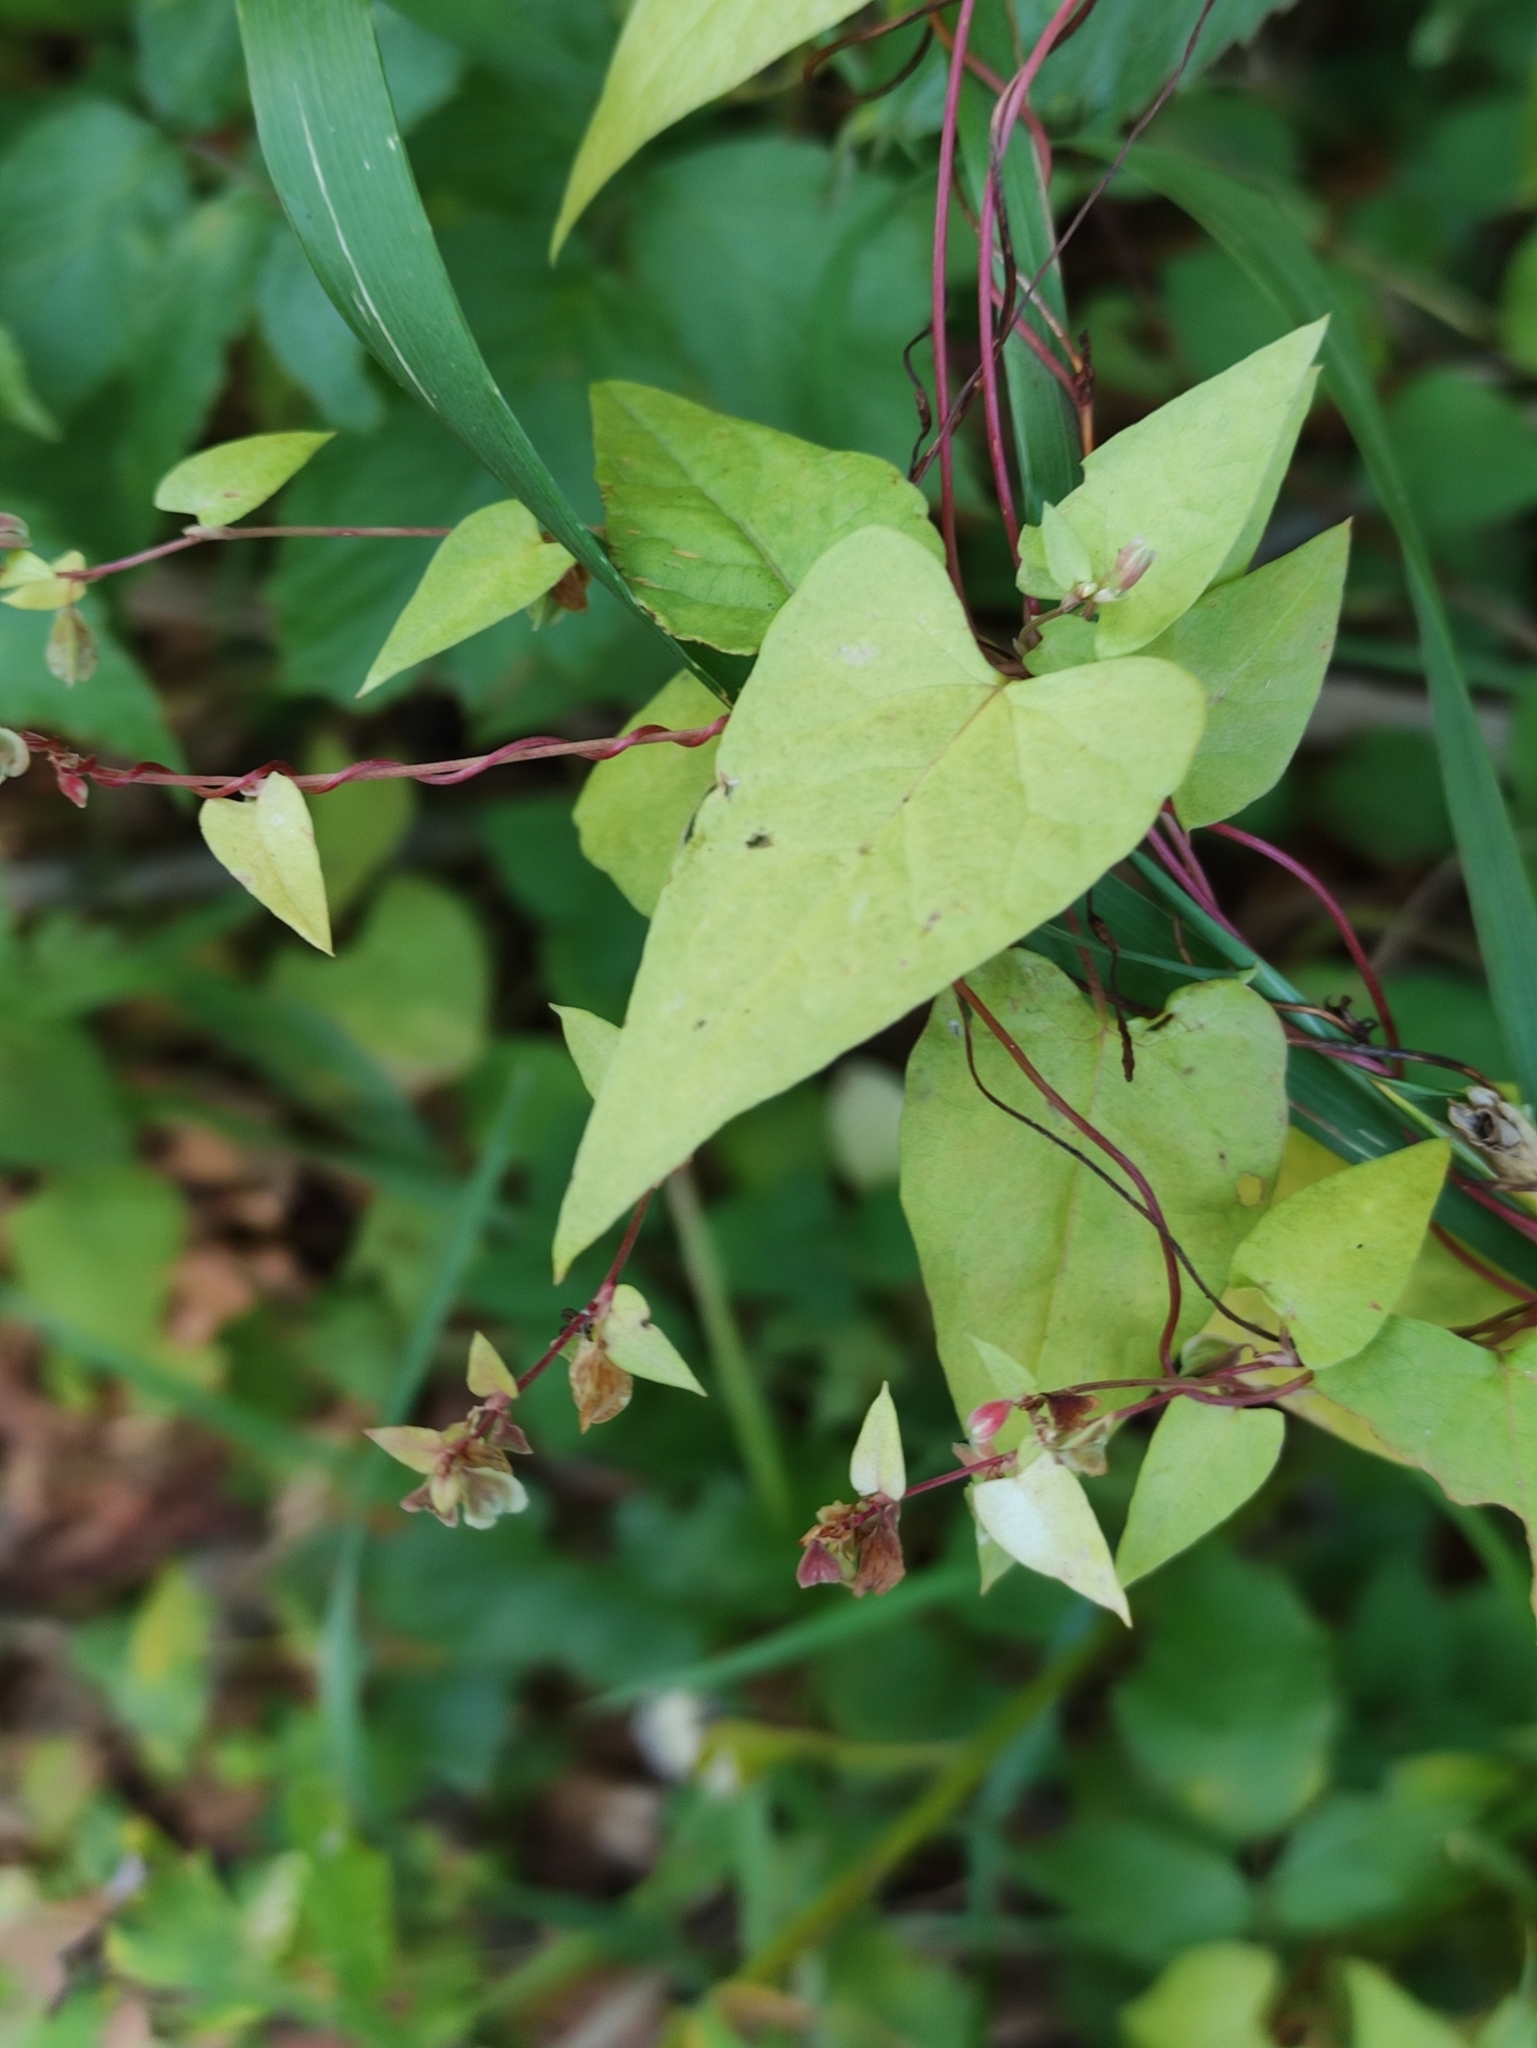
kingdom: Plantae
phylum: Tracheophyta
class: Magnoliopsida
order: Caryophyllales
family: Polygonaceae
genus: Fallopia
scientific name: Fallopia dumetorum
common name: Copse-bindweed
